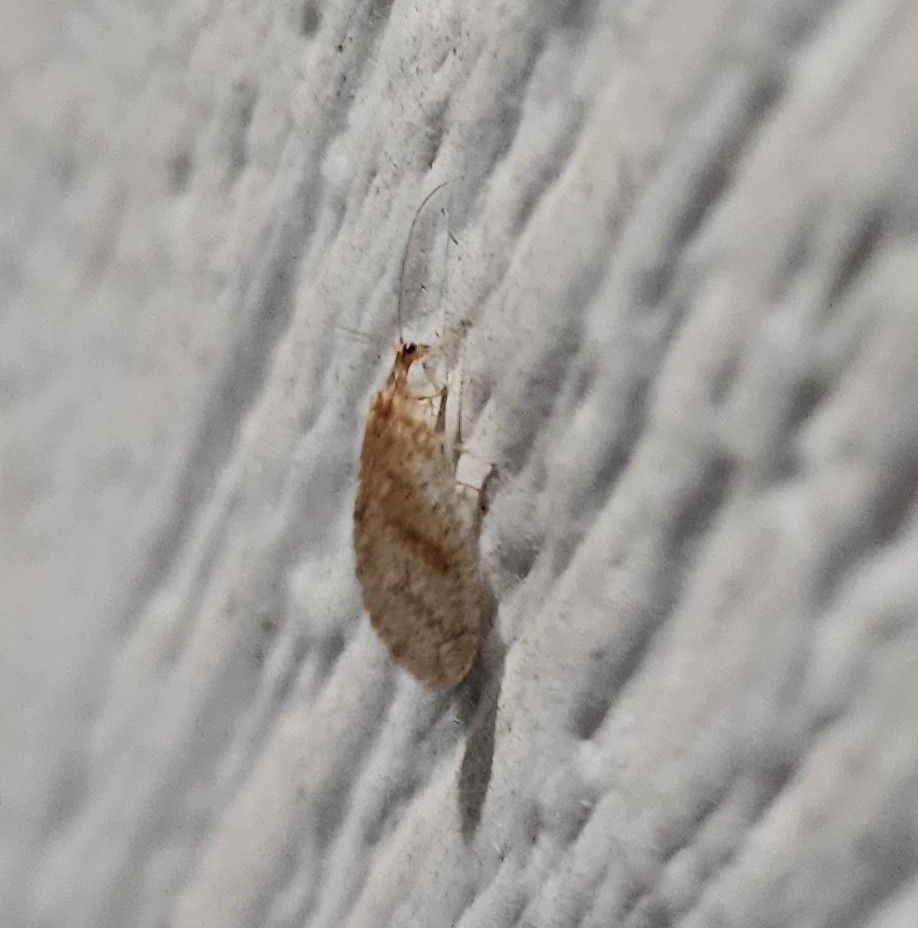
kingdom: Animalia
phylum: Arthropoda
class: Insecta
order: Neuroptera
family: Hemerobiidae
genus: Micromus
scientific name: Micromus posticus
